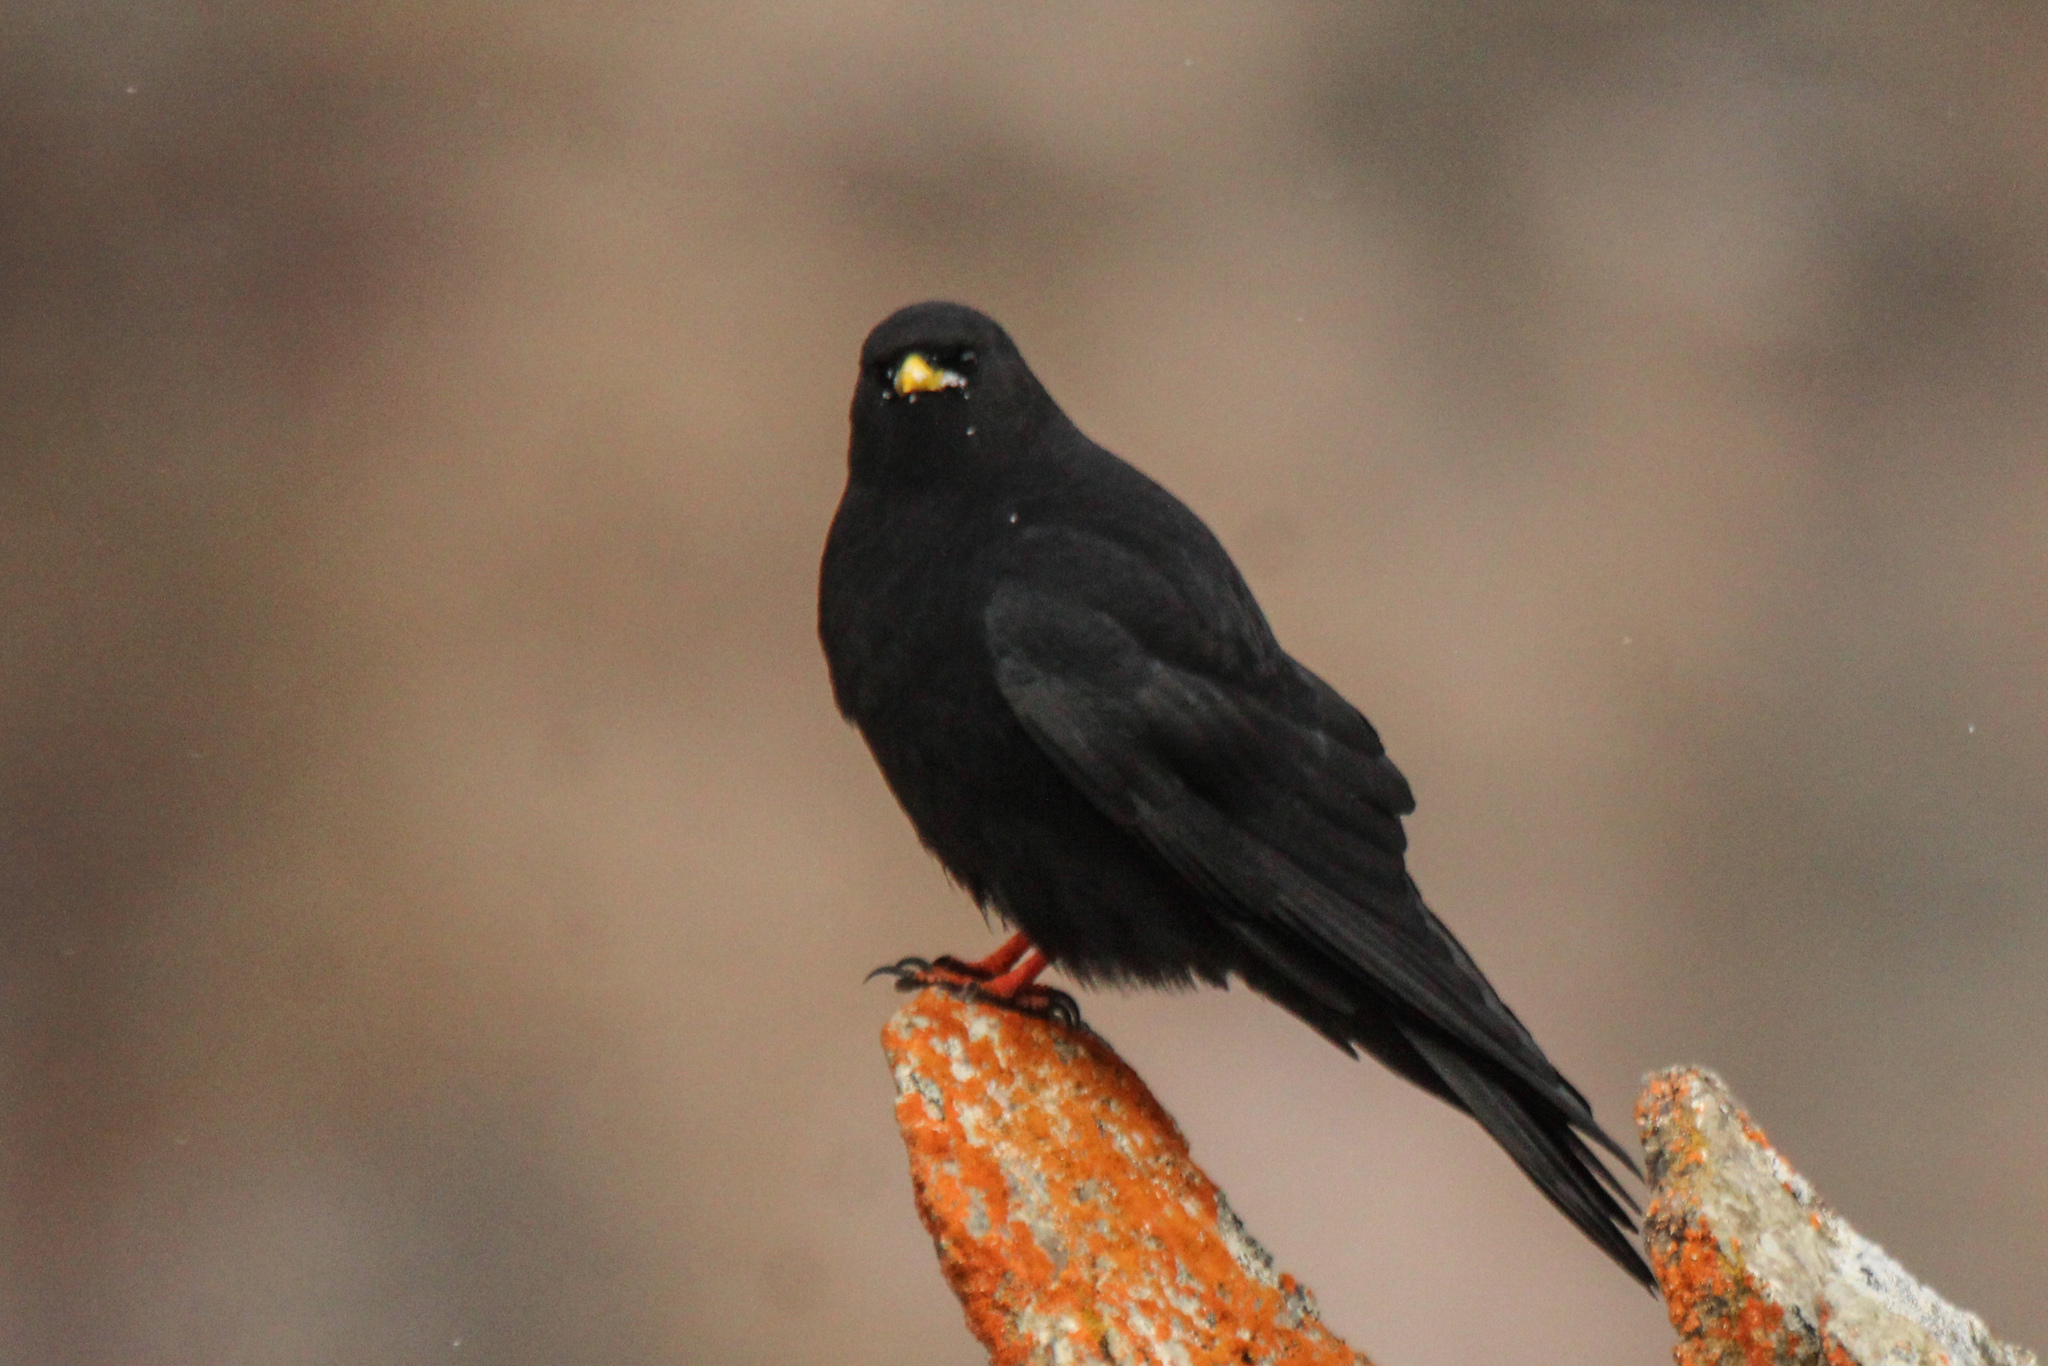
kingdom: Animalia
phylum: Chordata
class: Aves
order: Passeriformes
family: Corvidae
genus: Pyrrhocorax
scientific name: Pyrrhocorax graculus
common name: Alpine chough
